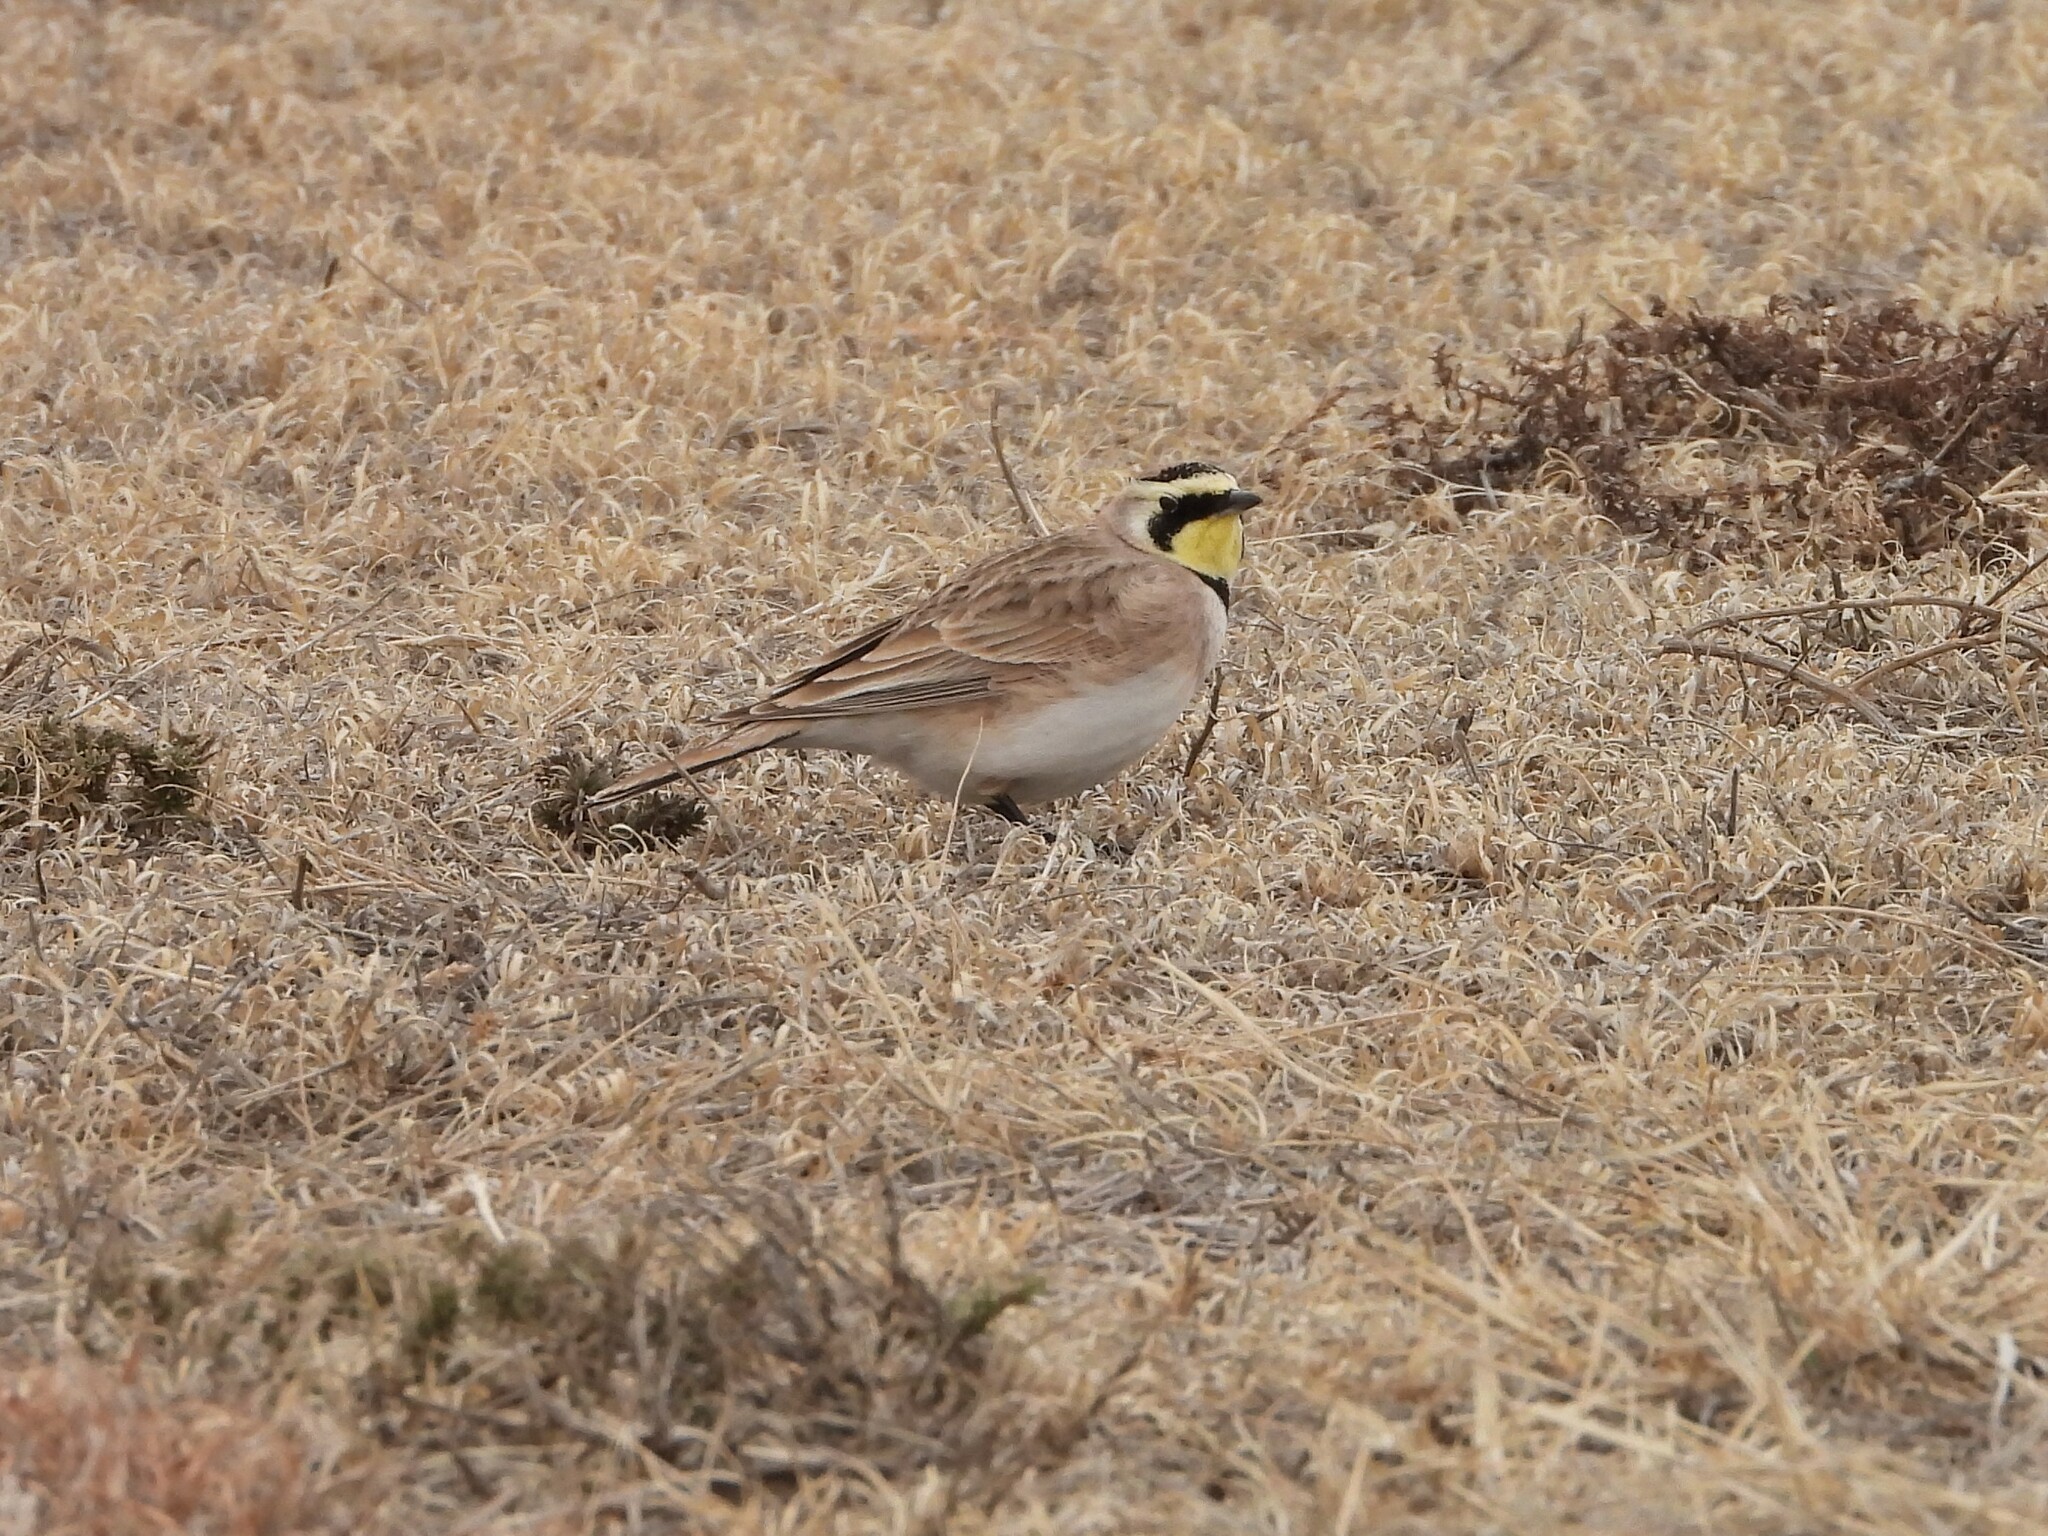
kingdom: Animalia
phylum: Chordata
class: Aves
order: Passeriformes
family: Alaudidae
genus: Eremophila
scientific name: Eremophila alpestris
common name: Horned lark
